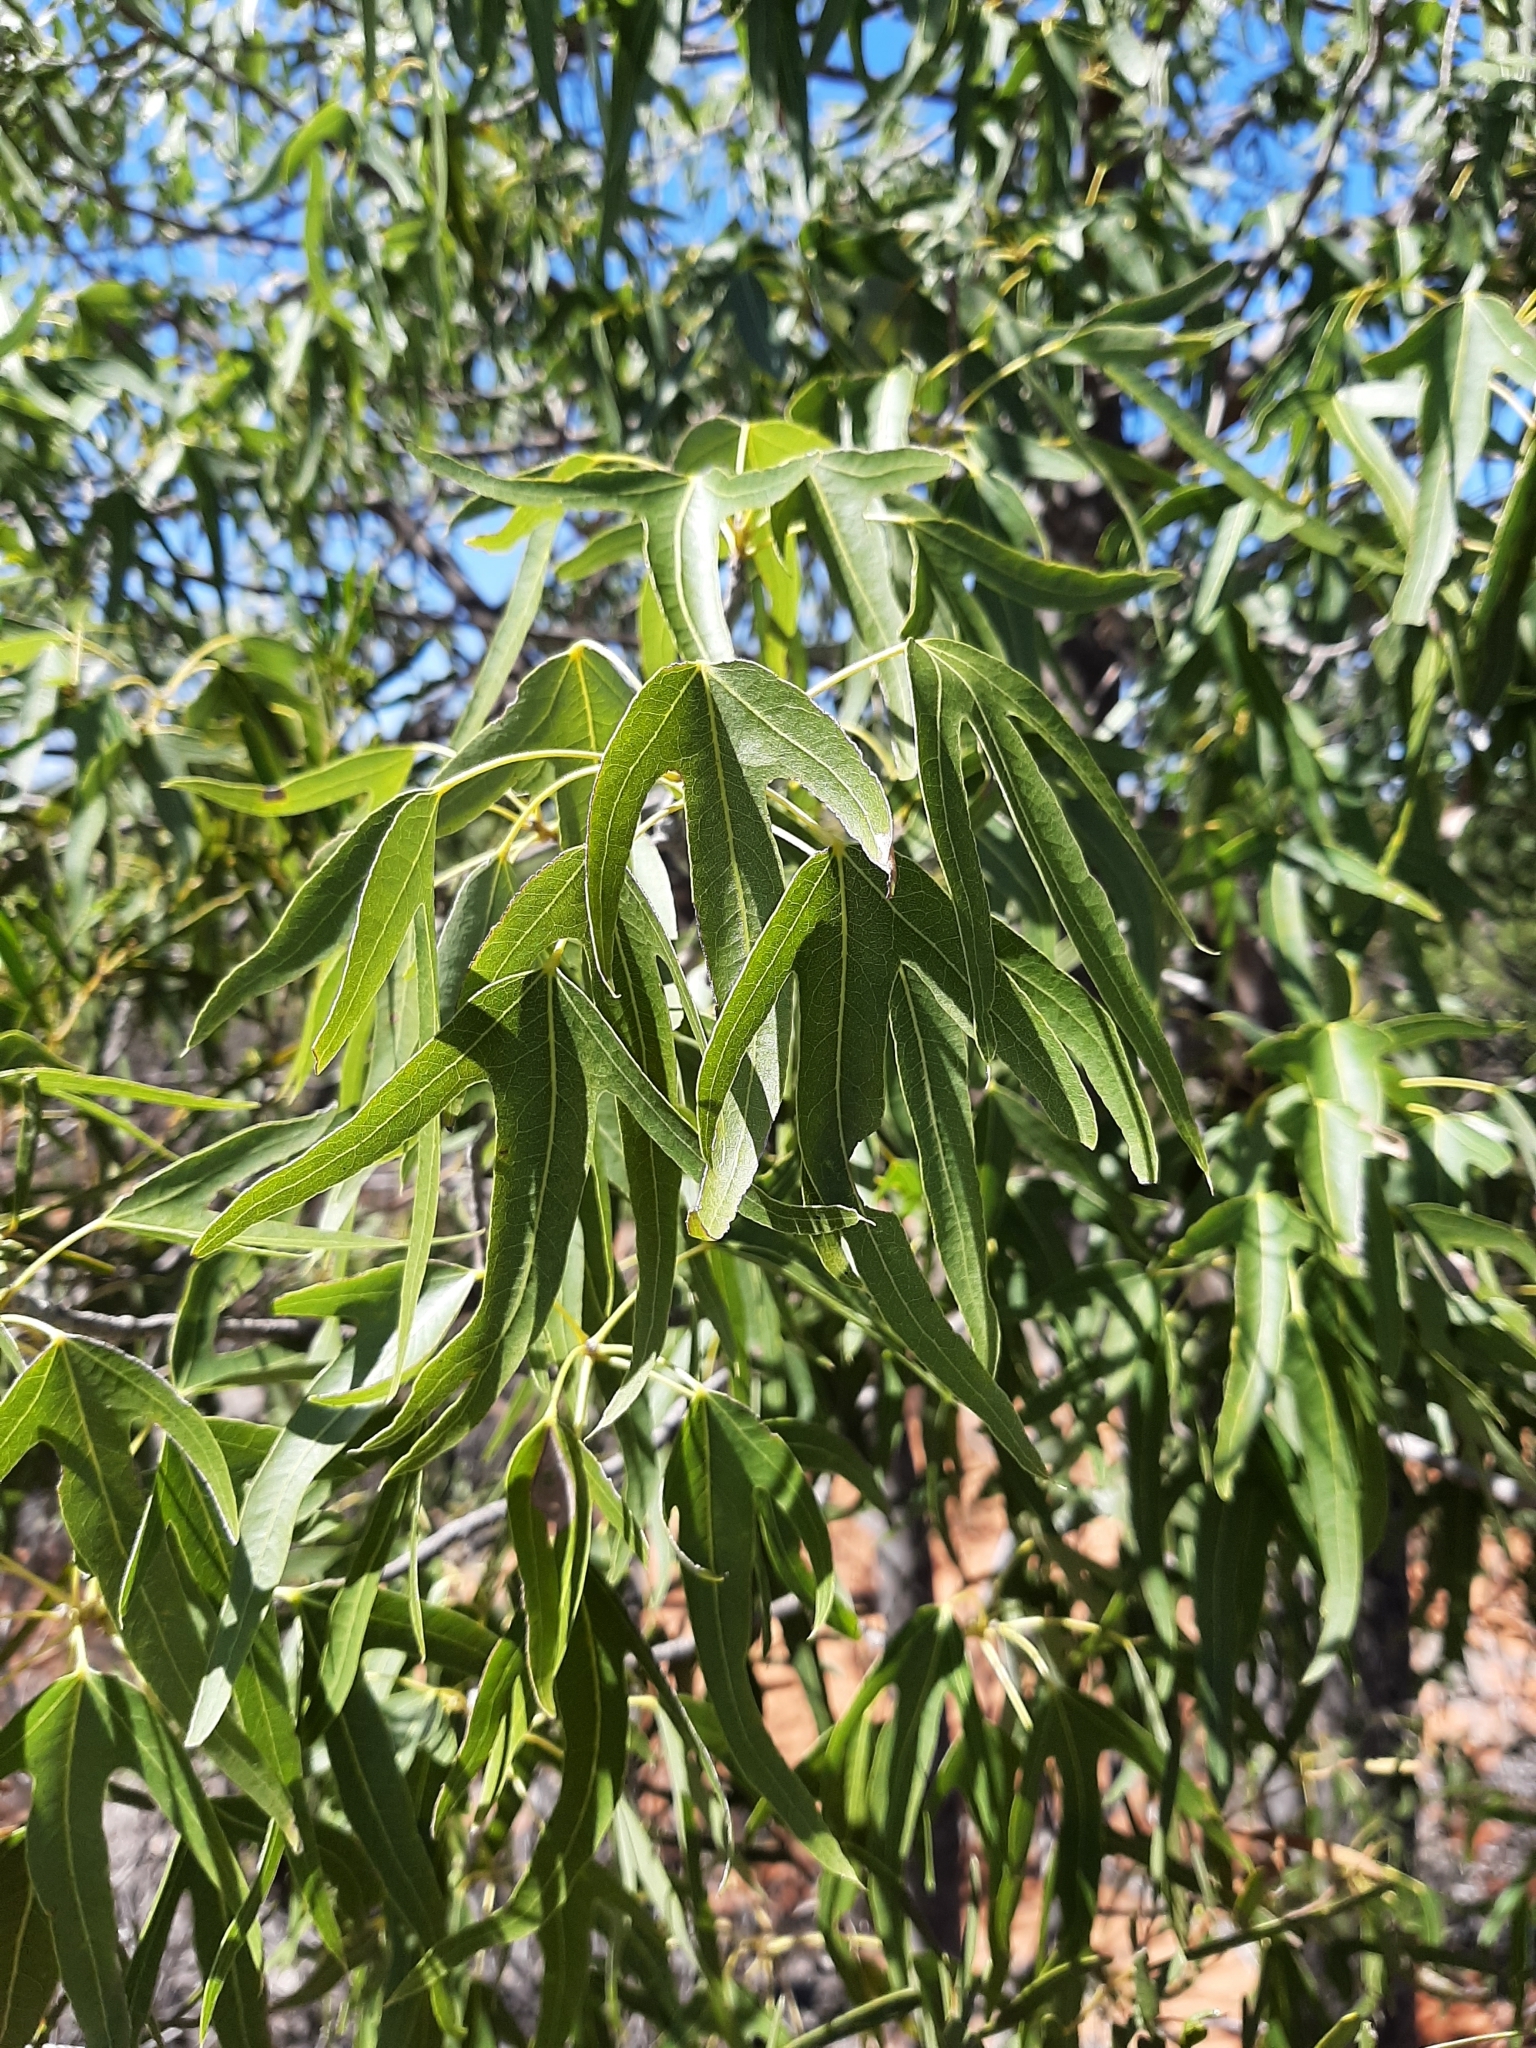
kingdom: Plantae
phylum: Tracheophyta
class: Magnoliopsida
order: Malvales
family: Malvaceae
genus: Brachychiton
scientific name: Brachychiton gregorii
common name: Desert kurrajong
